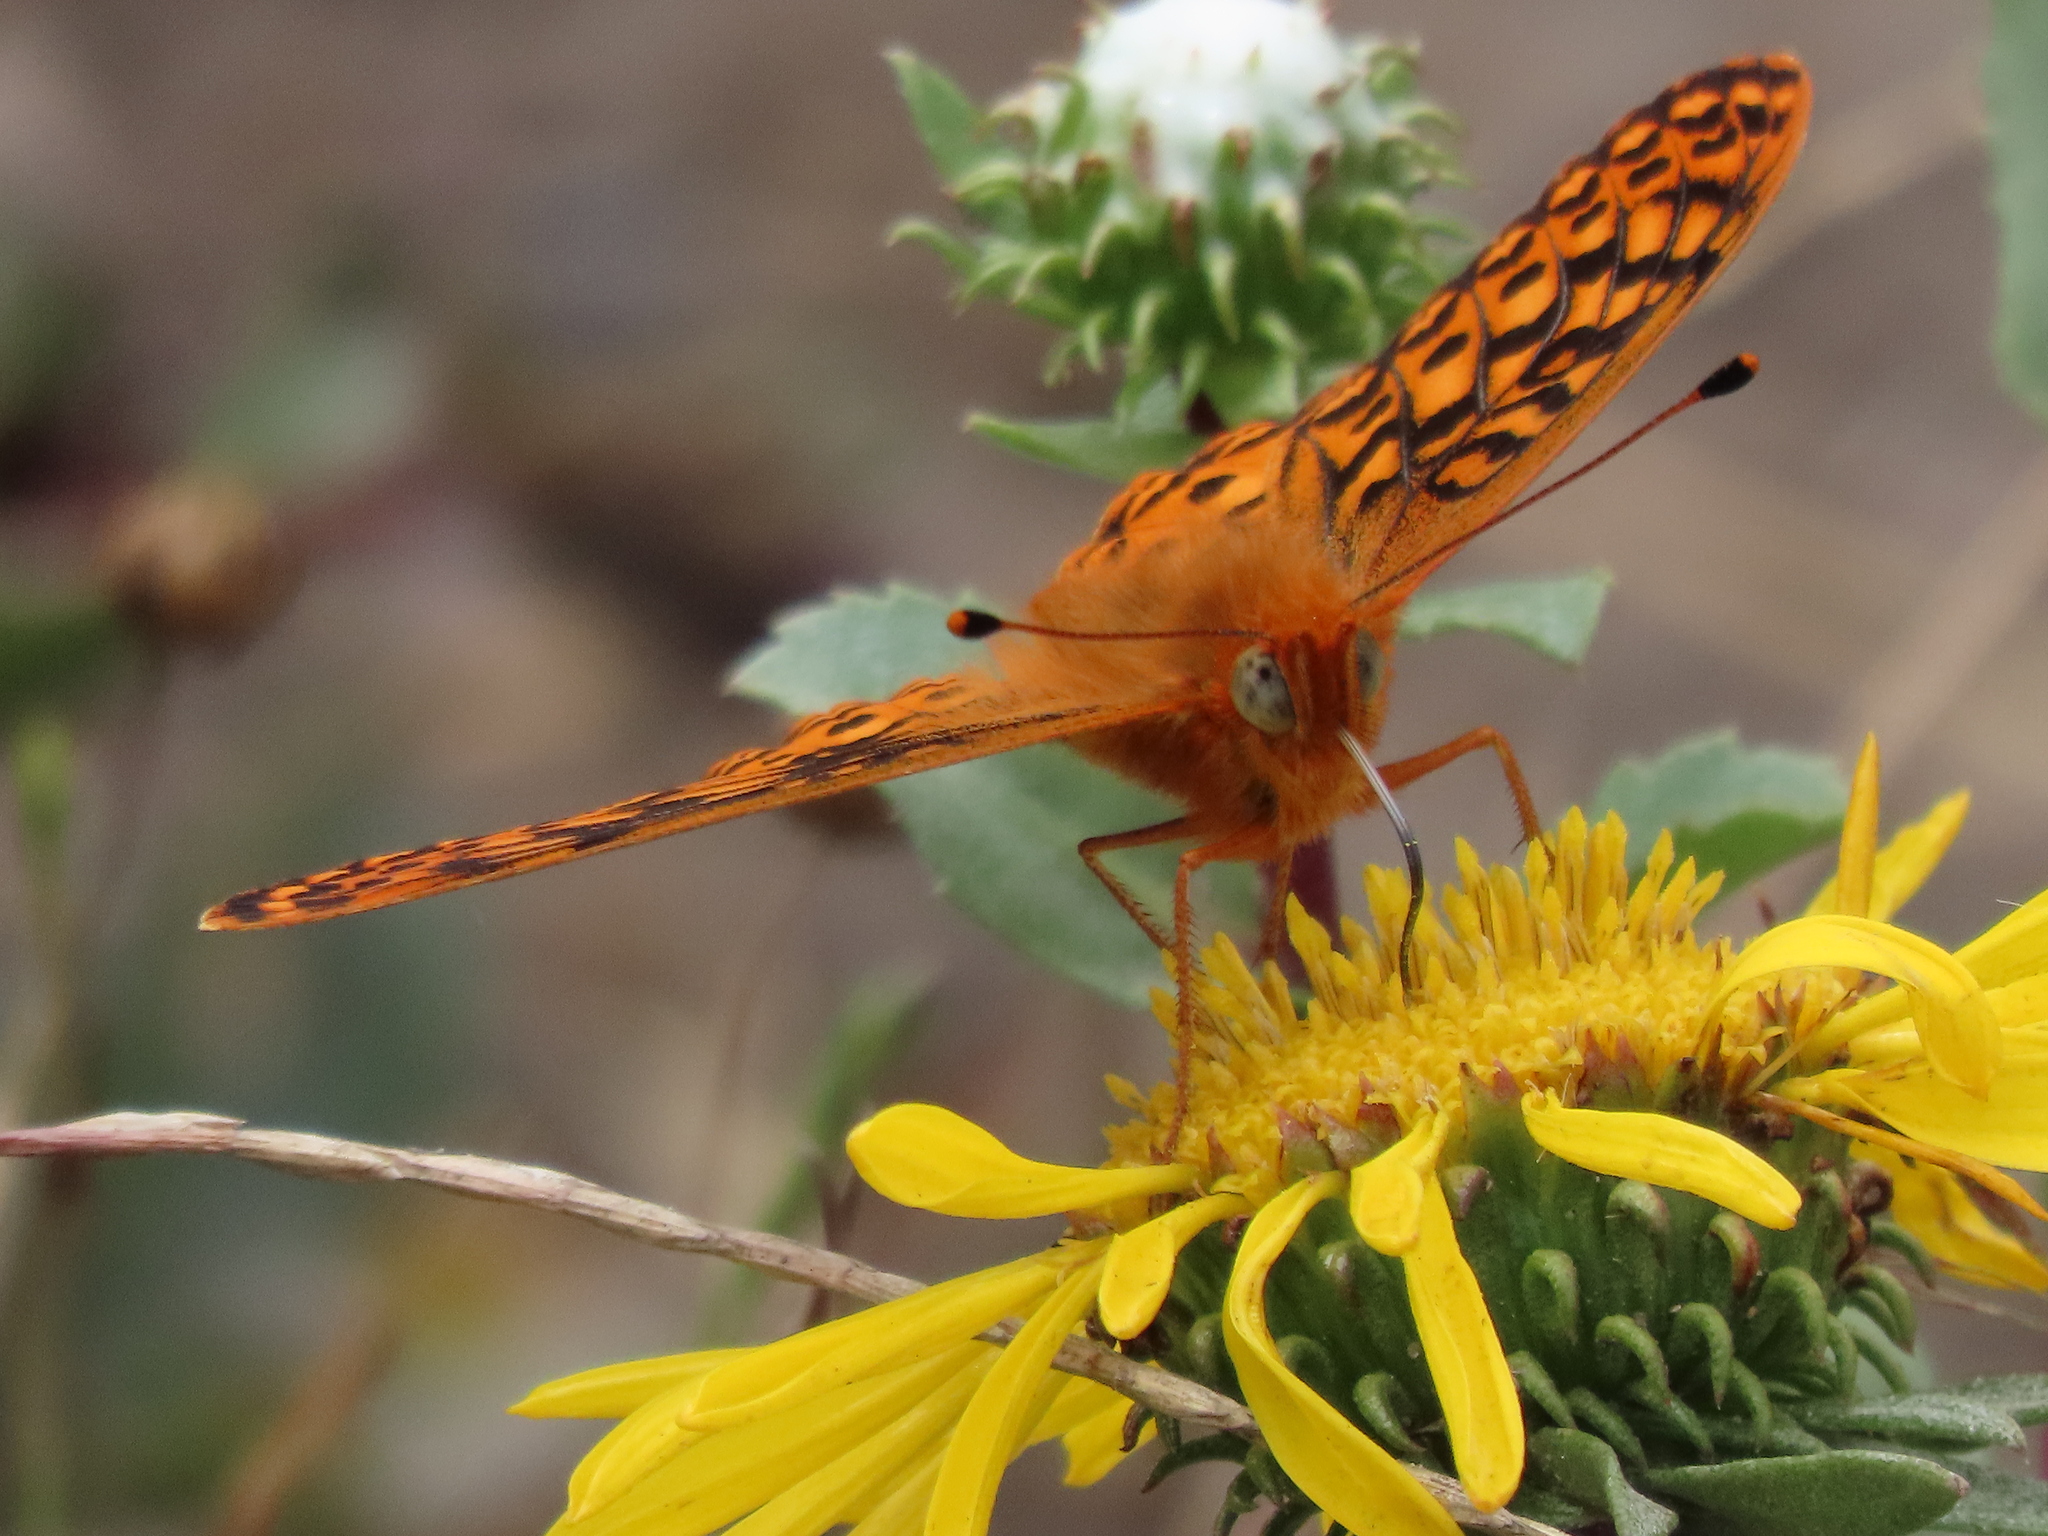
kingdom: Animalia
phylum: Arthropoda
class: Insecta
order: Lepidoptera
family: Nymphalidae
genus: Speyeria
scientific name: Speyeria zerene
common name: Zerene fritillary
